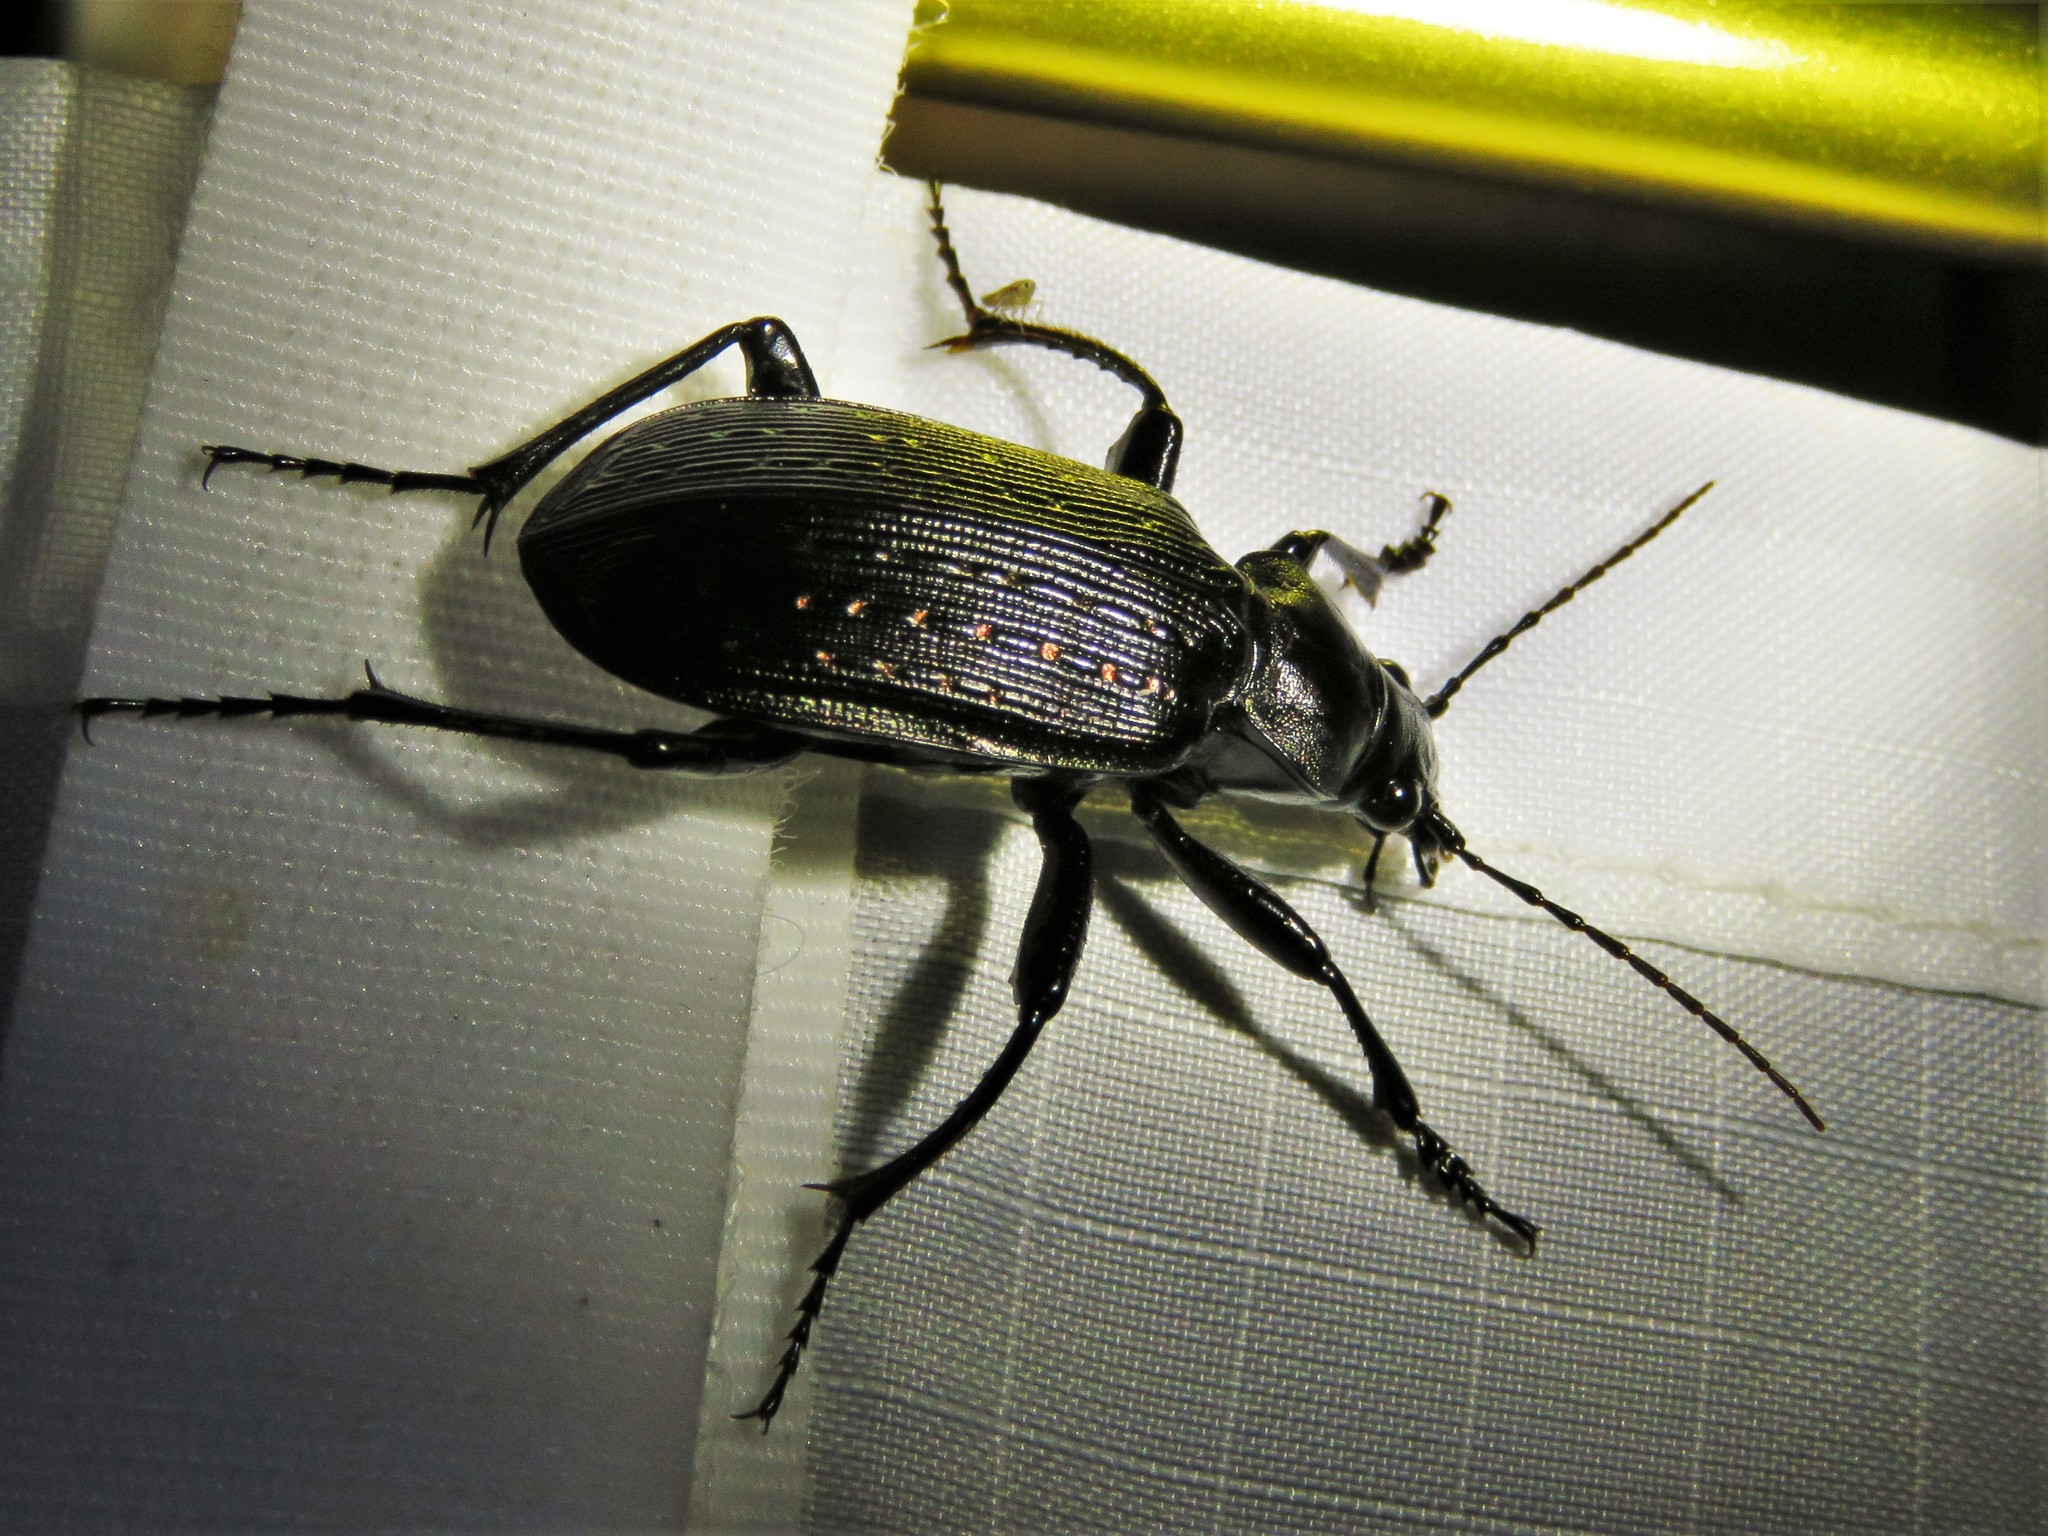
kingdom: Animalia
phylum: Arthropoda
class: Insecta
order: Coleoptera
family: Carabidae
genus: Calosoma
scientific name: Calosoma sayi
